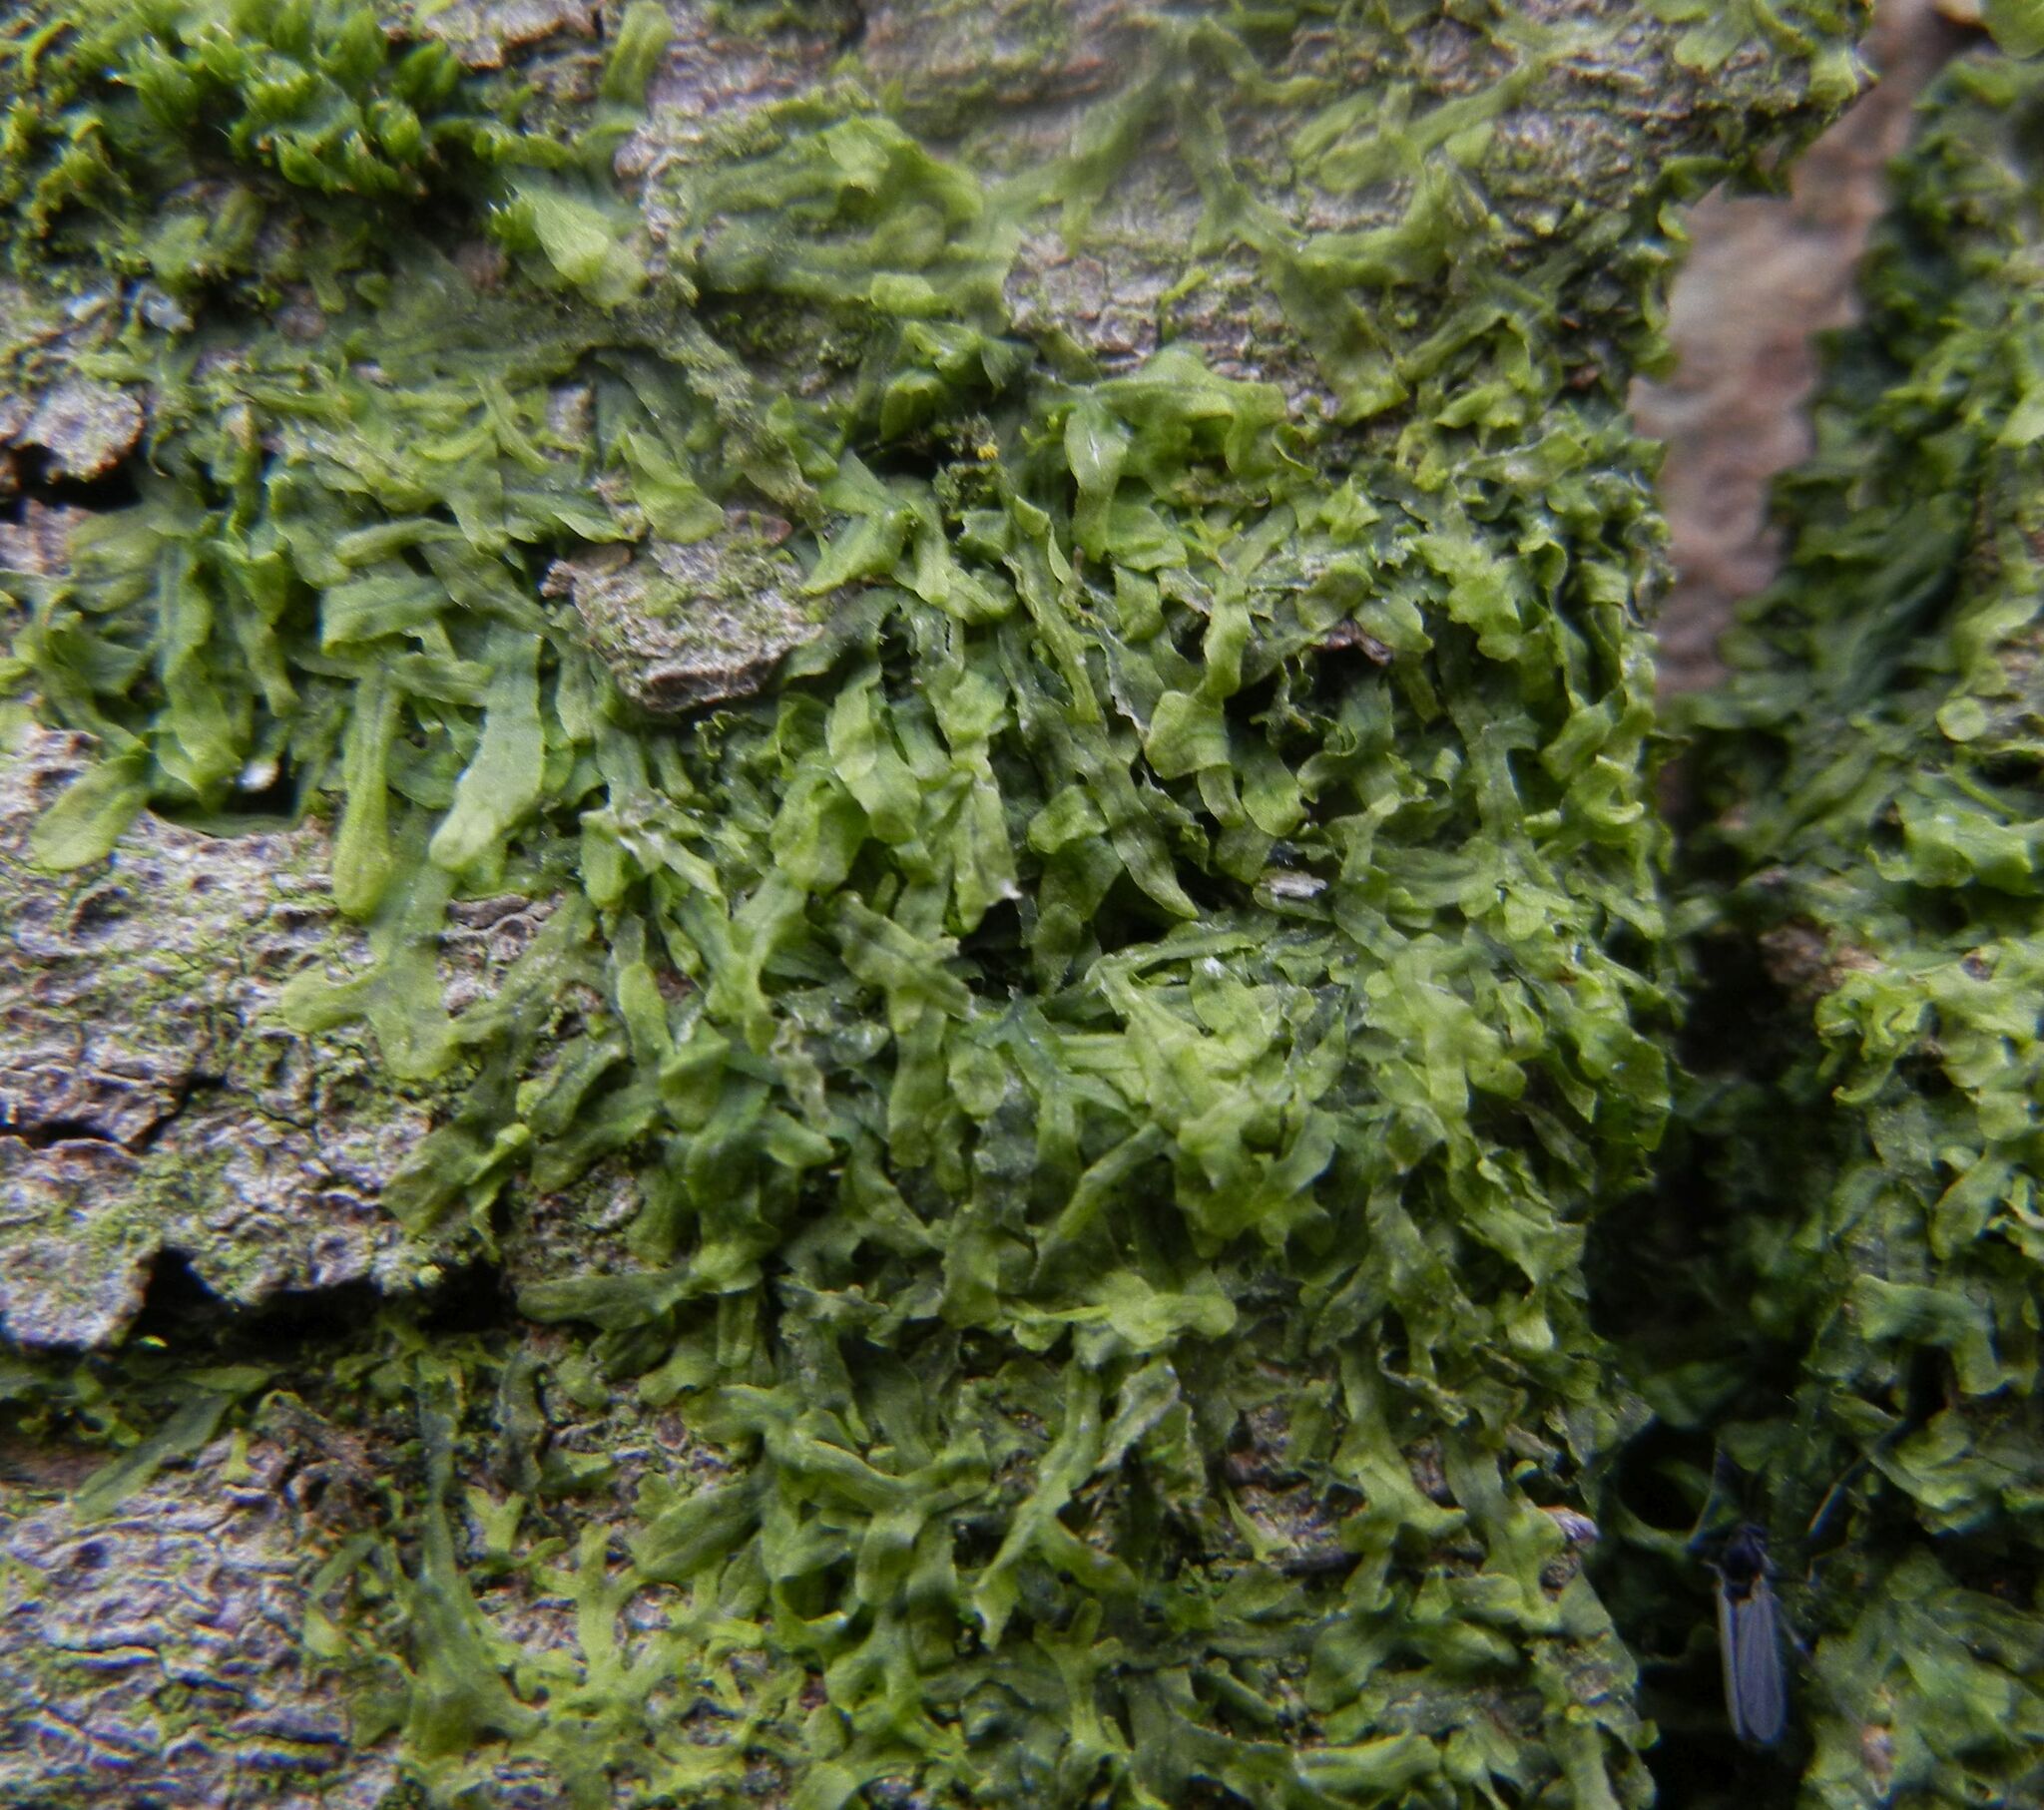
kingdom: Plantae
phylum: Marchantiophyta
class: Jungermanniopsida
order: Metzgeriales
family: Metzgeriaceae
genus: Metzgeria
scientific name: Metzgeria furcata
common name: Forked veilwort
